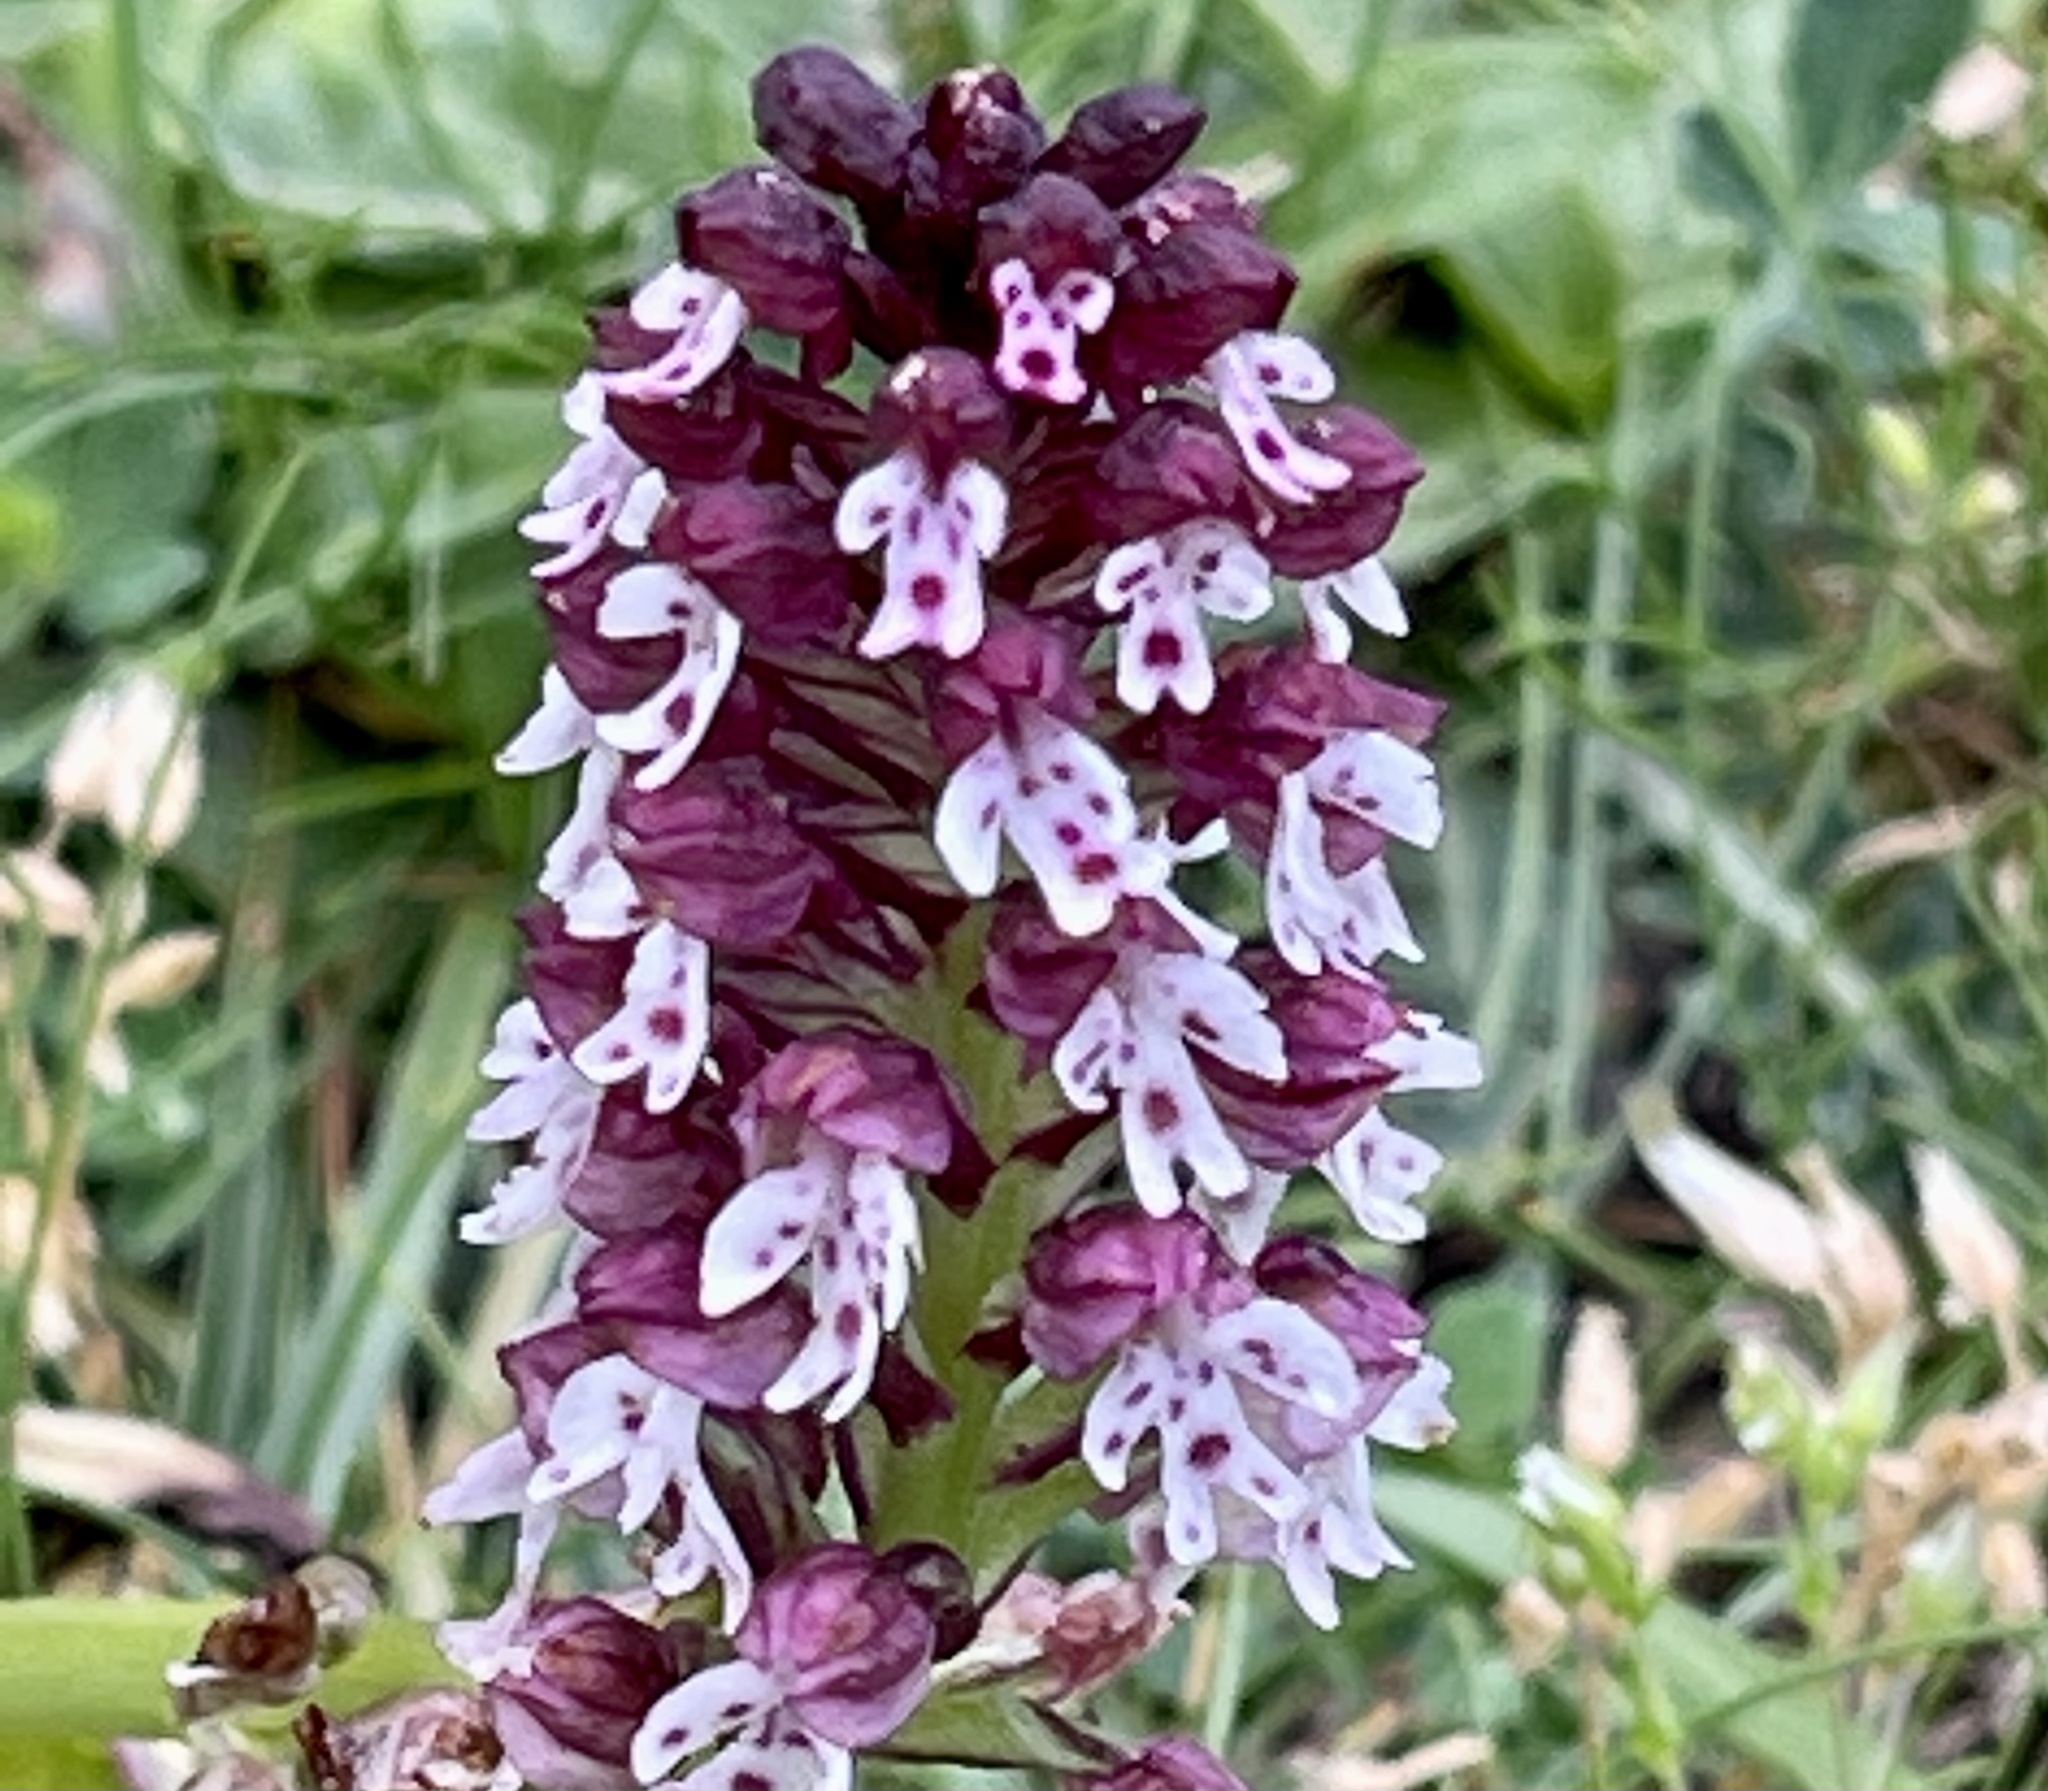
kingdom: Plantae
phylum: Tracheophyta
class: Liliopsida
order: Asparagales
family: Orchidaceae
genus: Neotinea
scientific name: Neotinea ustulata
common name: Burnt orchid
